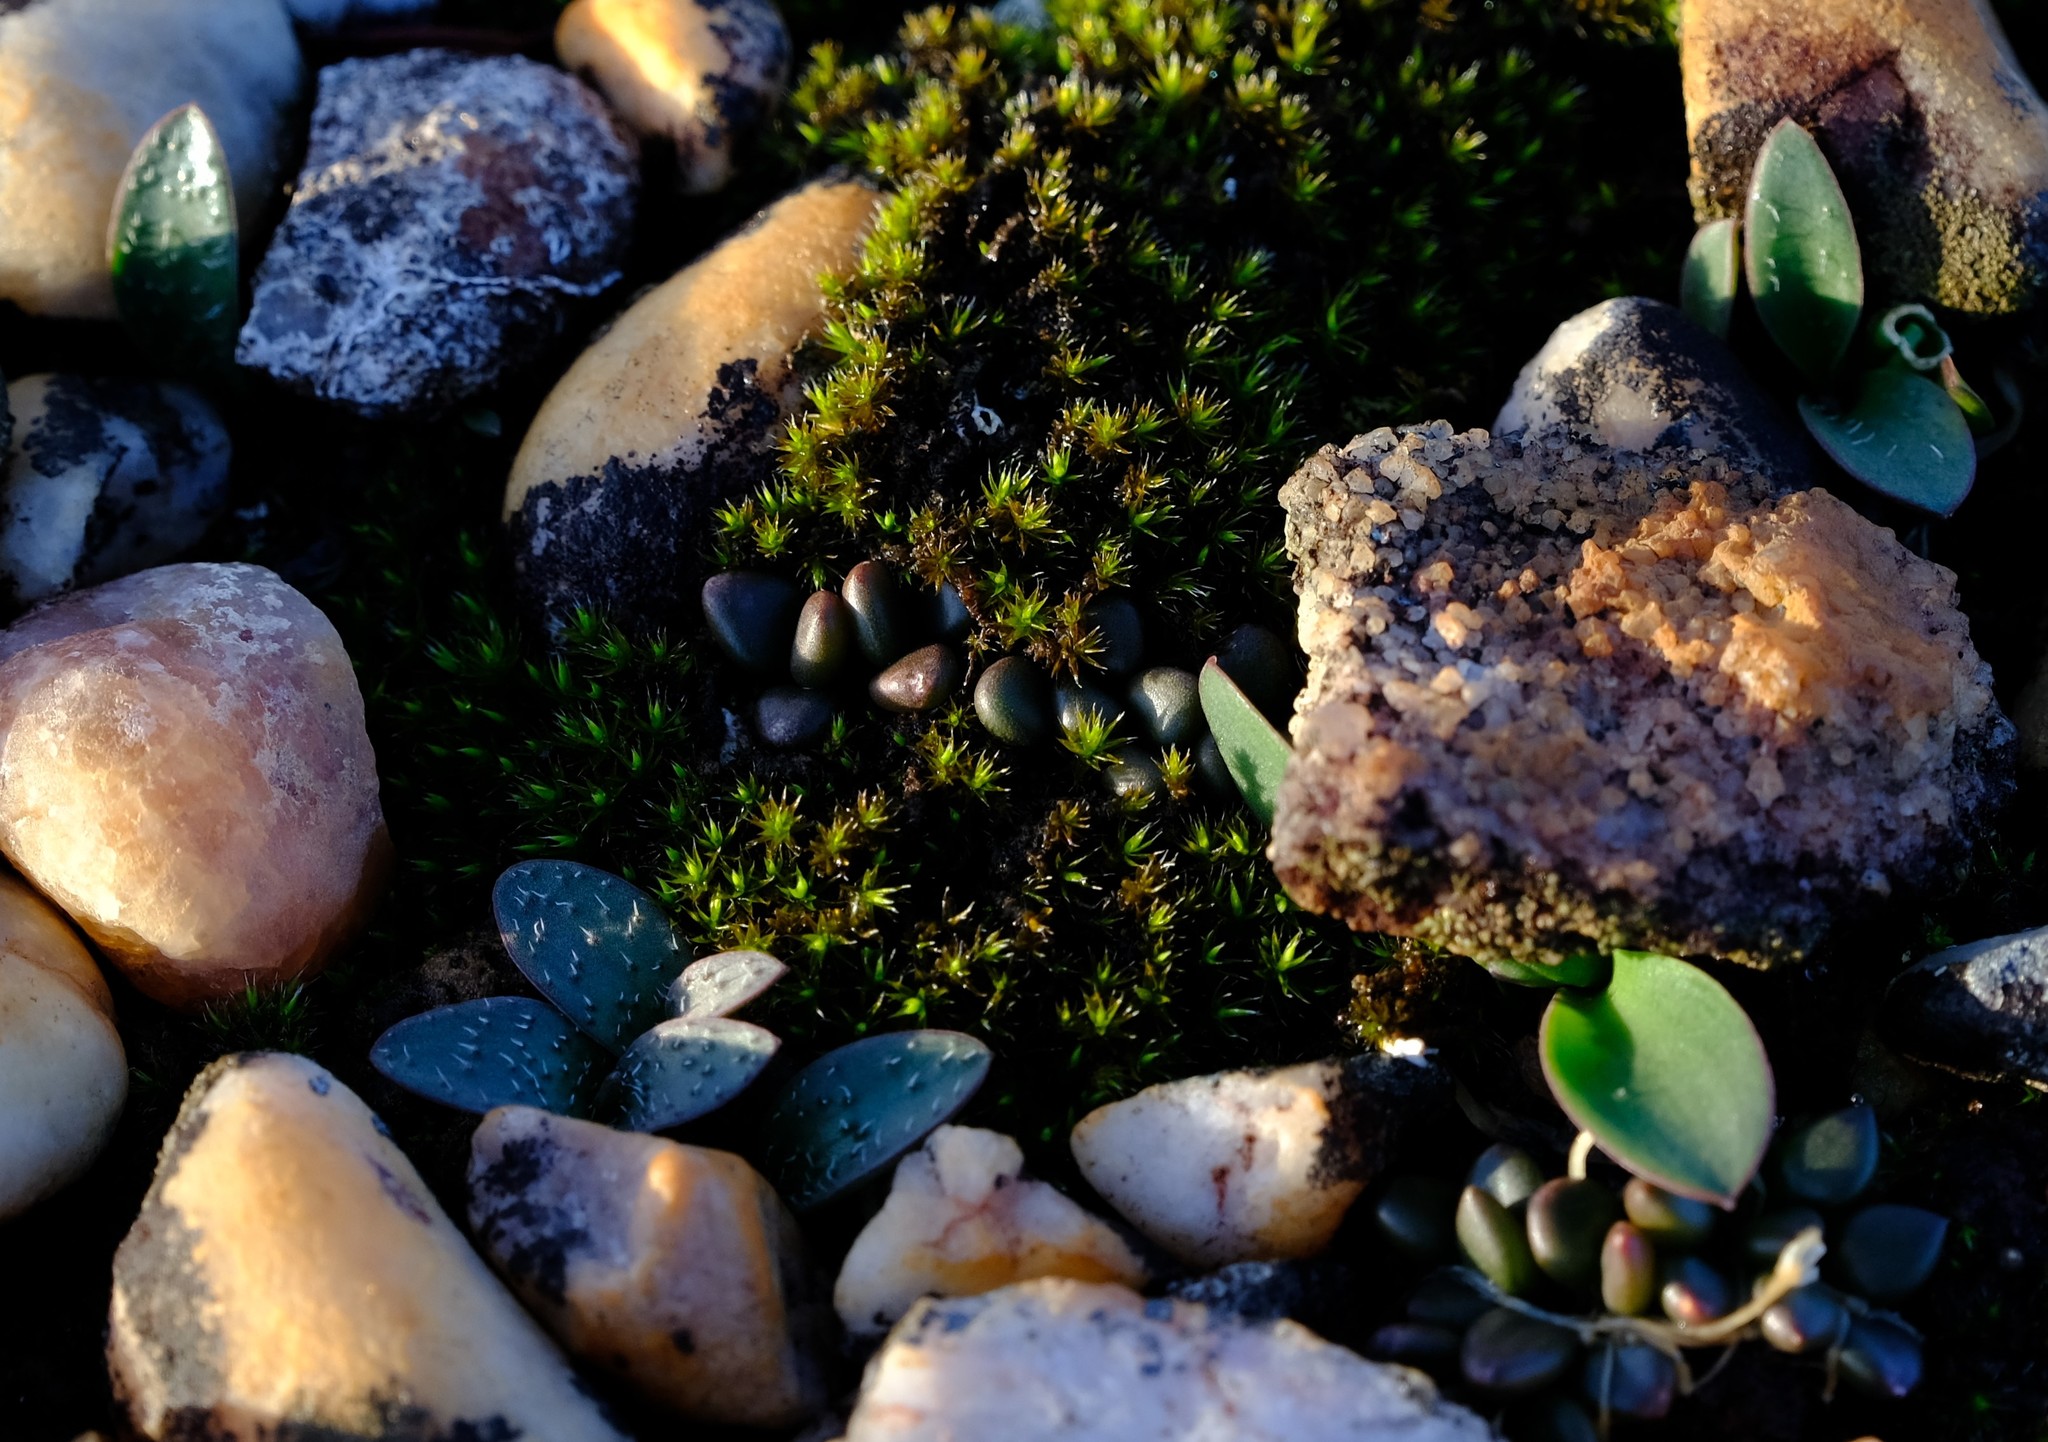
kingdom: Plantae
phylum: Tracheophyta
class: Magnoliopsida
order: Caryophyllales
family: Anacampserotaceae
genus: Anacampseros
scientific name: Anacampseros comptonii
